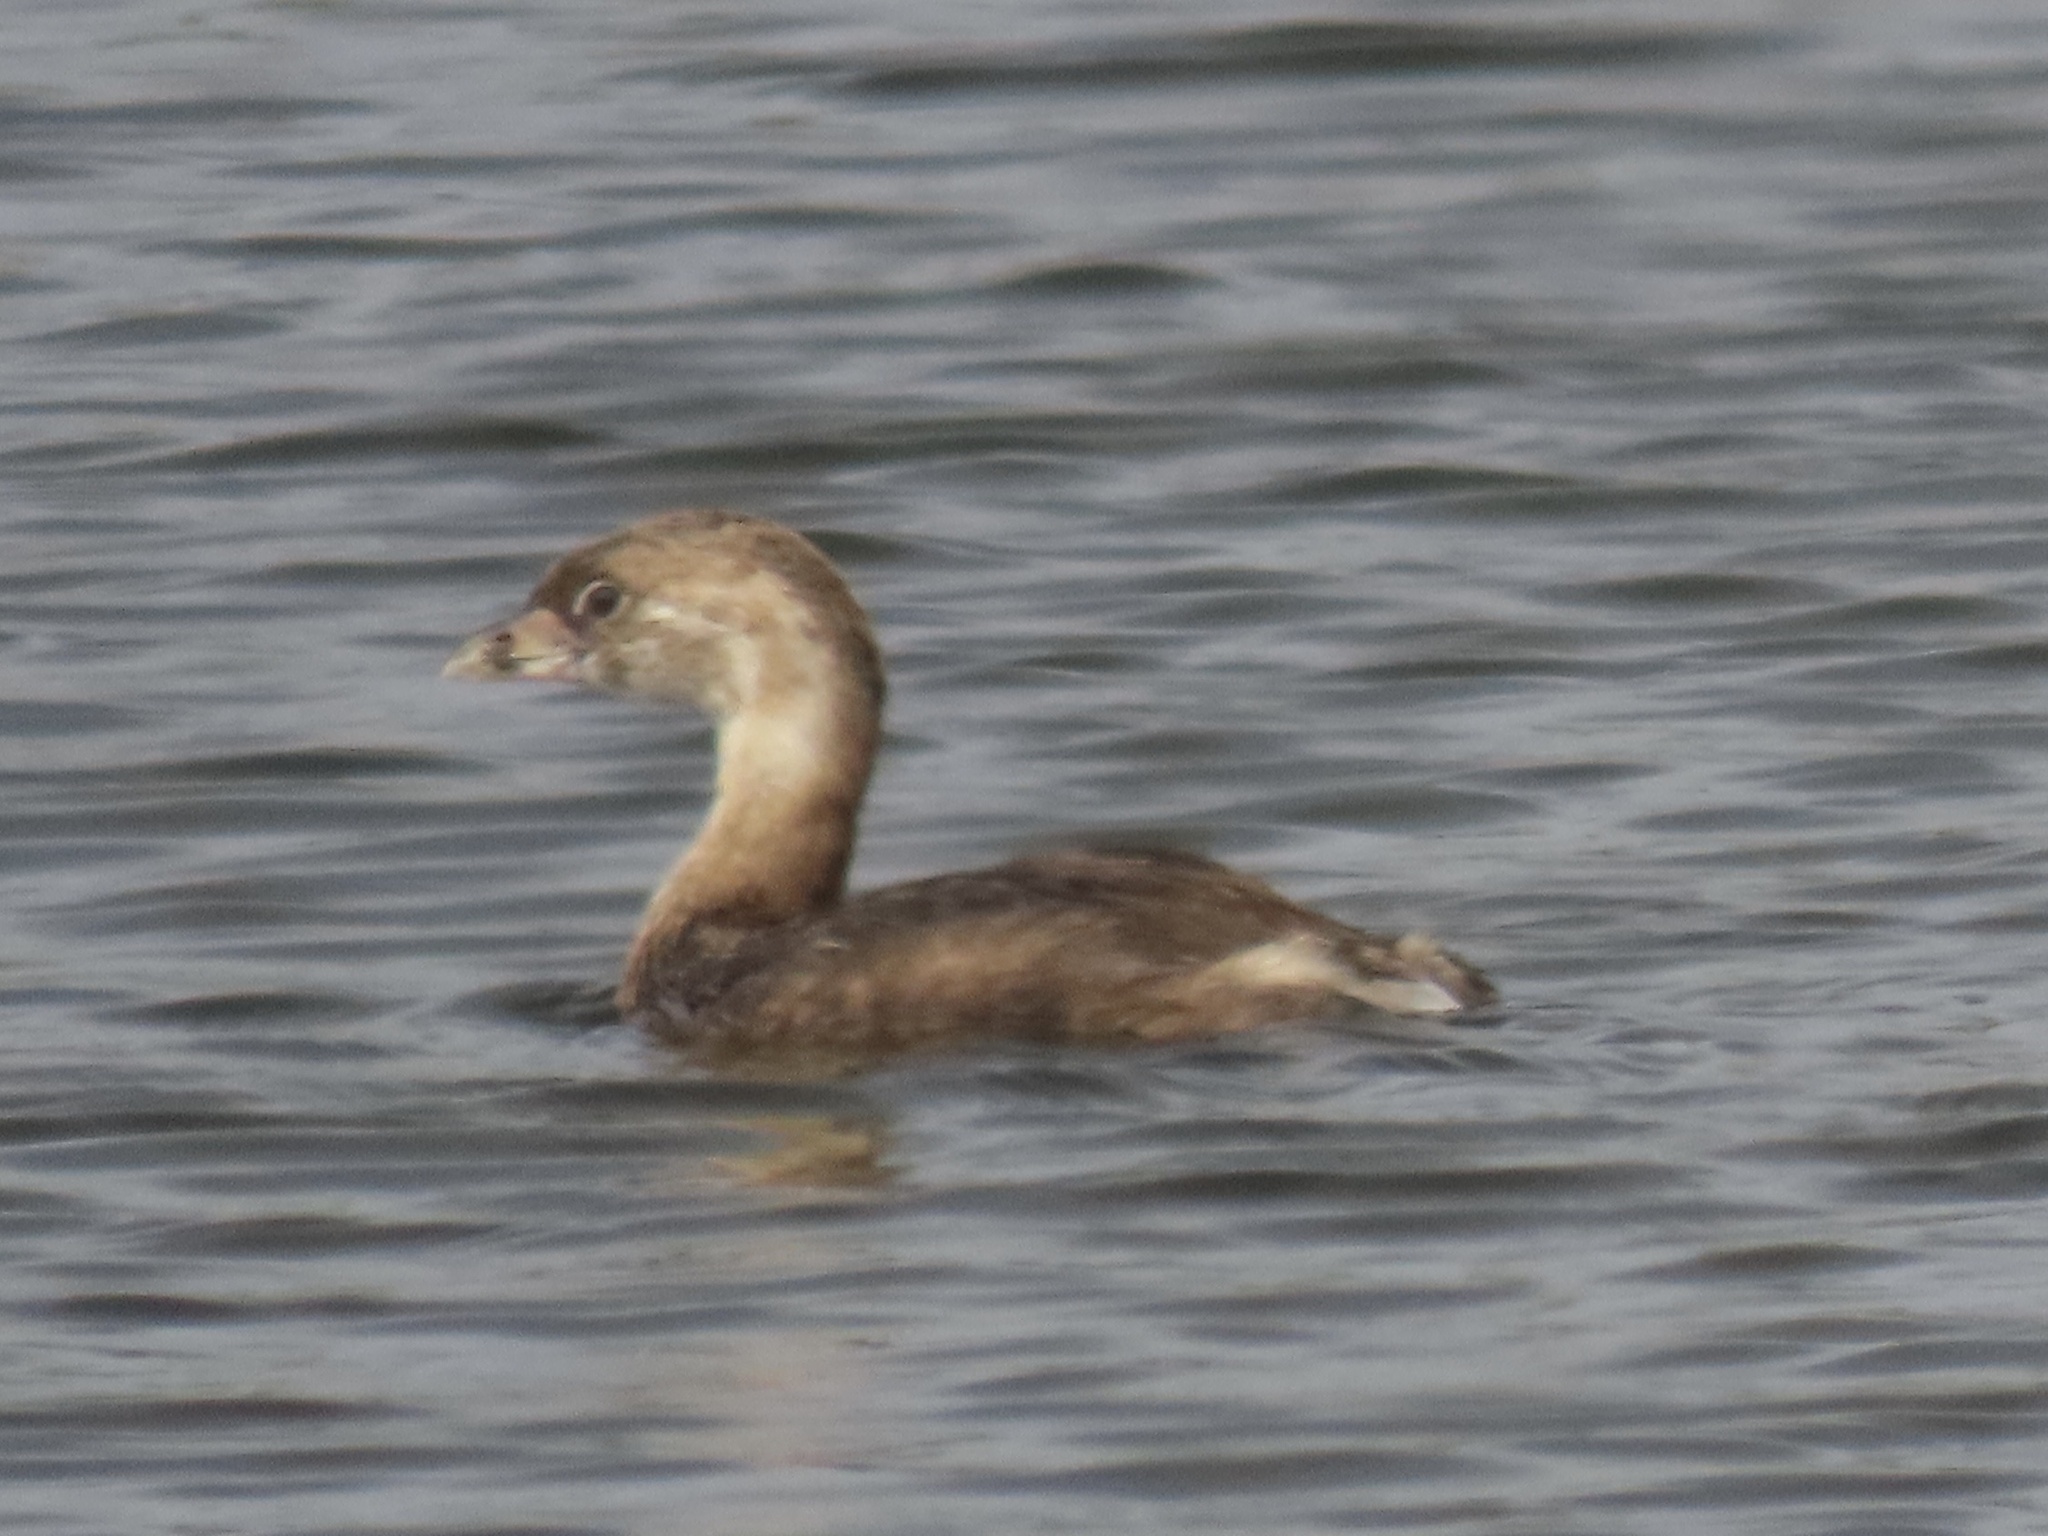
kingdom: Animalia
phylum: Chordata
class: Aves
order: Podicipediformes
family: Podicipedidae
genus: Podilymbus
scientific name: Podilymbus podiceps
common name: Pied-billed grebe
